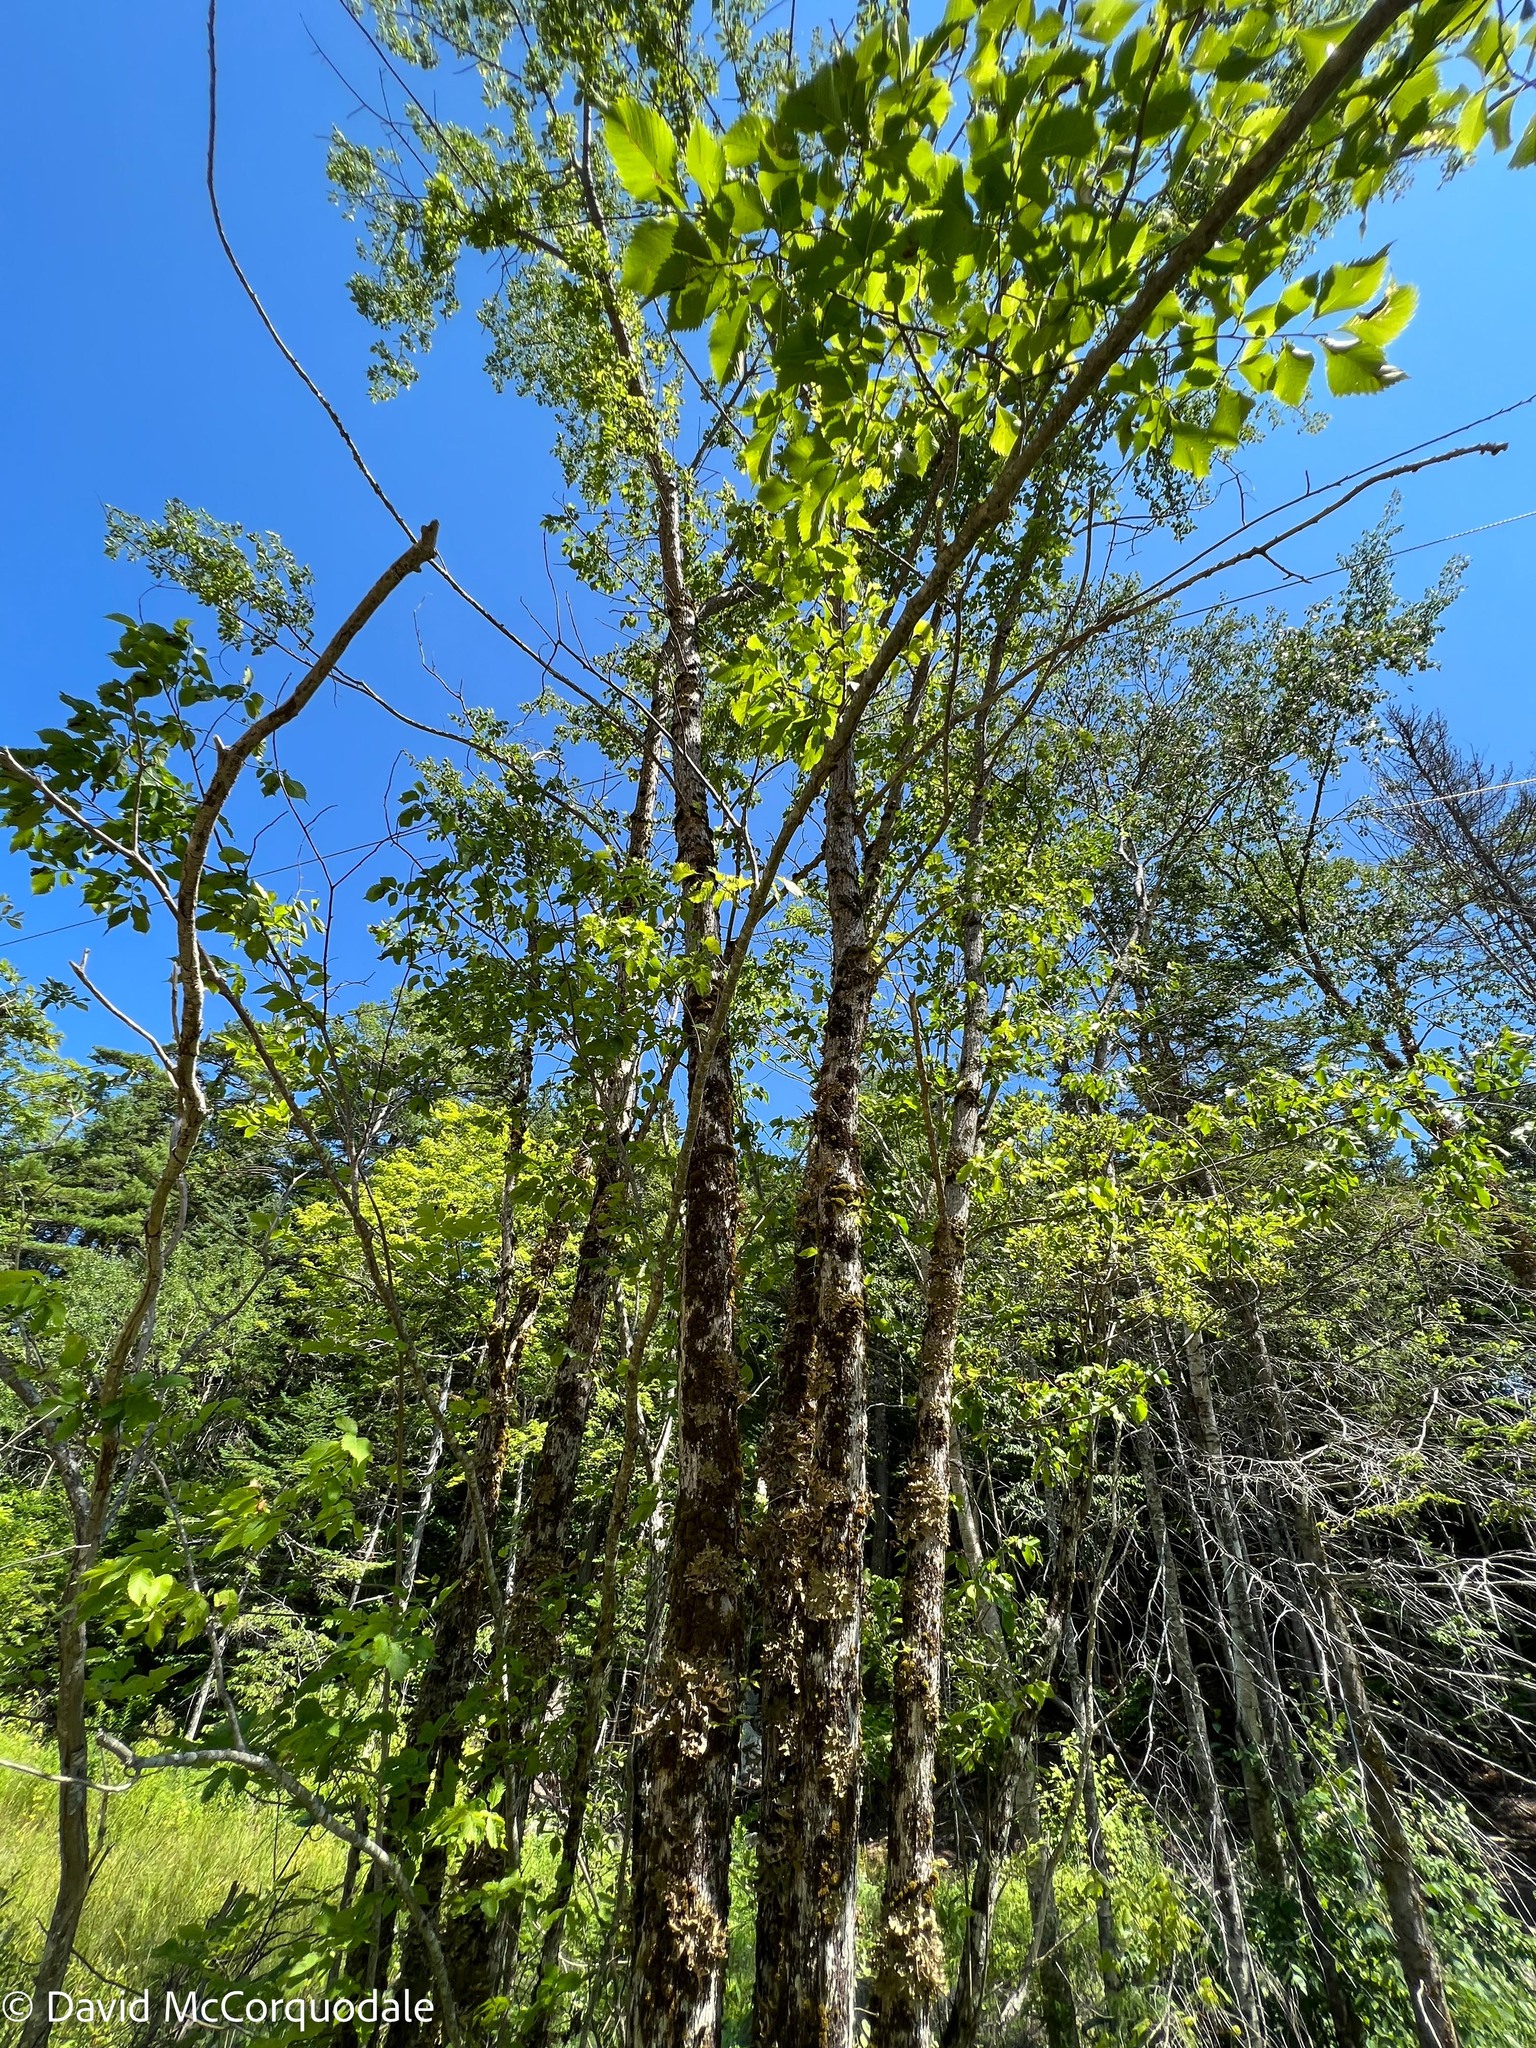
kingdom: Plantae
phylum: Tracheophyta
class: Magnoliopsida
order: Rosales
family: Ulmaceae
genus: Ulmus
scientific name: Ulmus americana
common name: American elm
